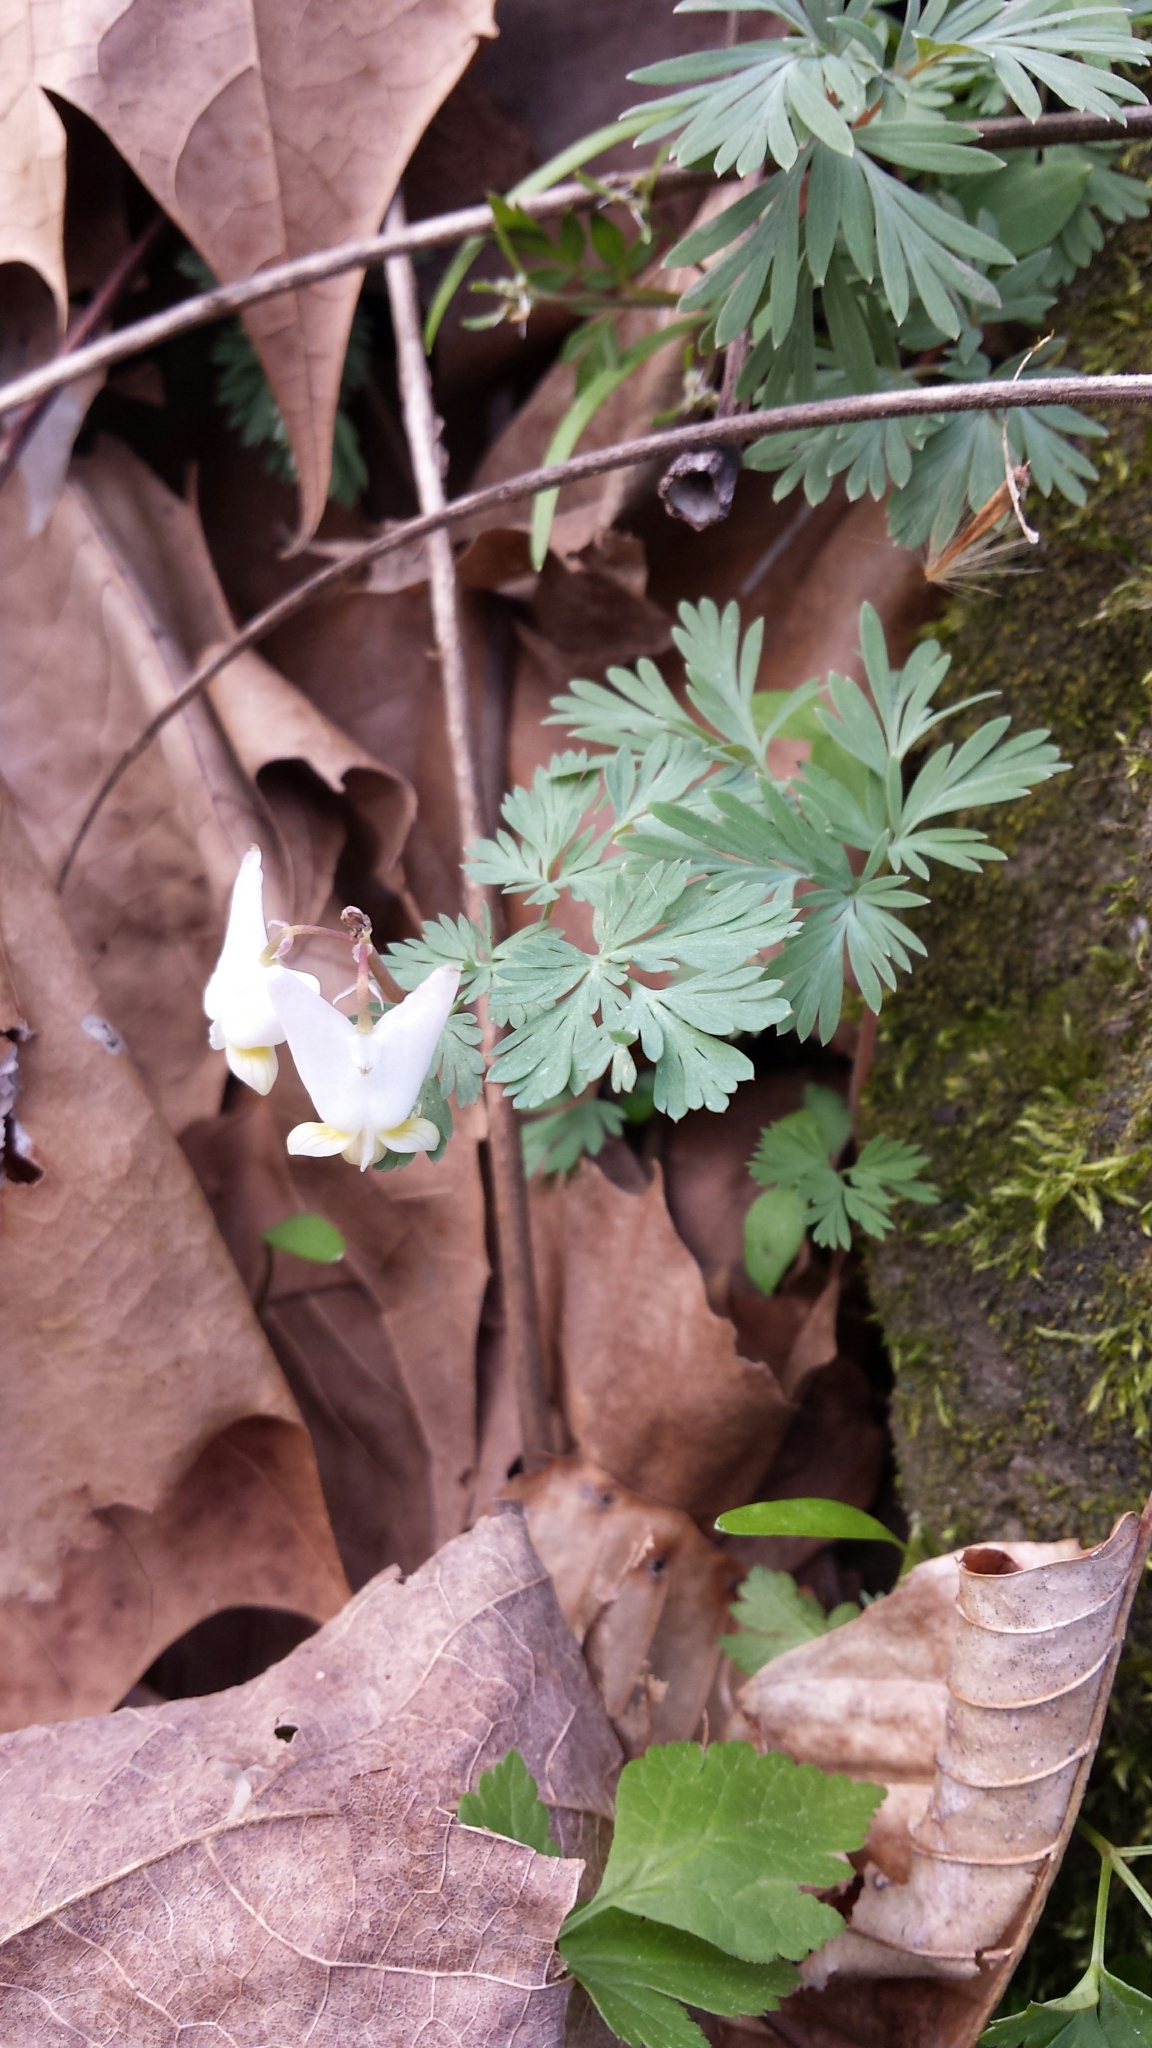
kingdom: Plantae
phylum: Tracheophyta
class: Magnoliopsida
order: Ranunculales
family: Papaveraceae
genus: Dicentra
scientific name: Dicentra cucullaria
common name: Dutchman's breeches
